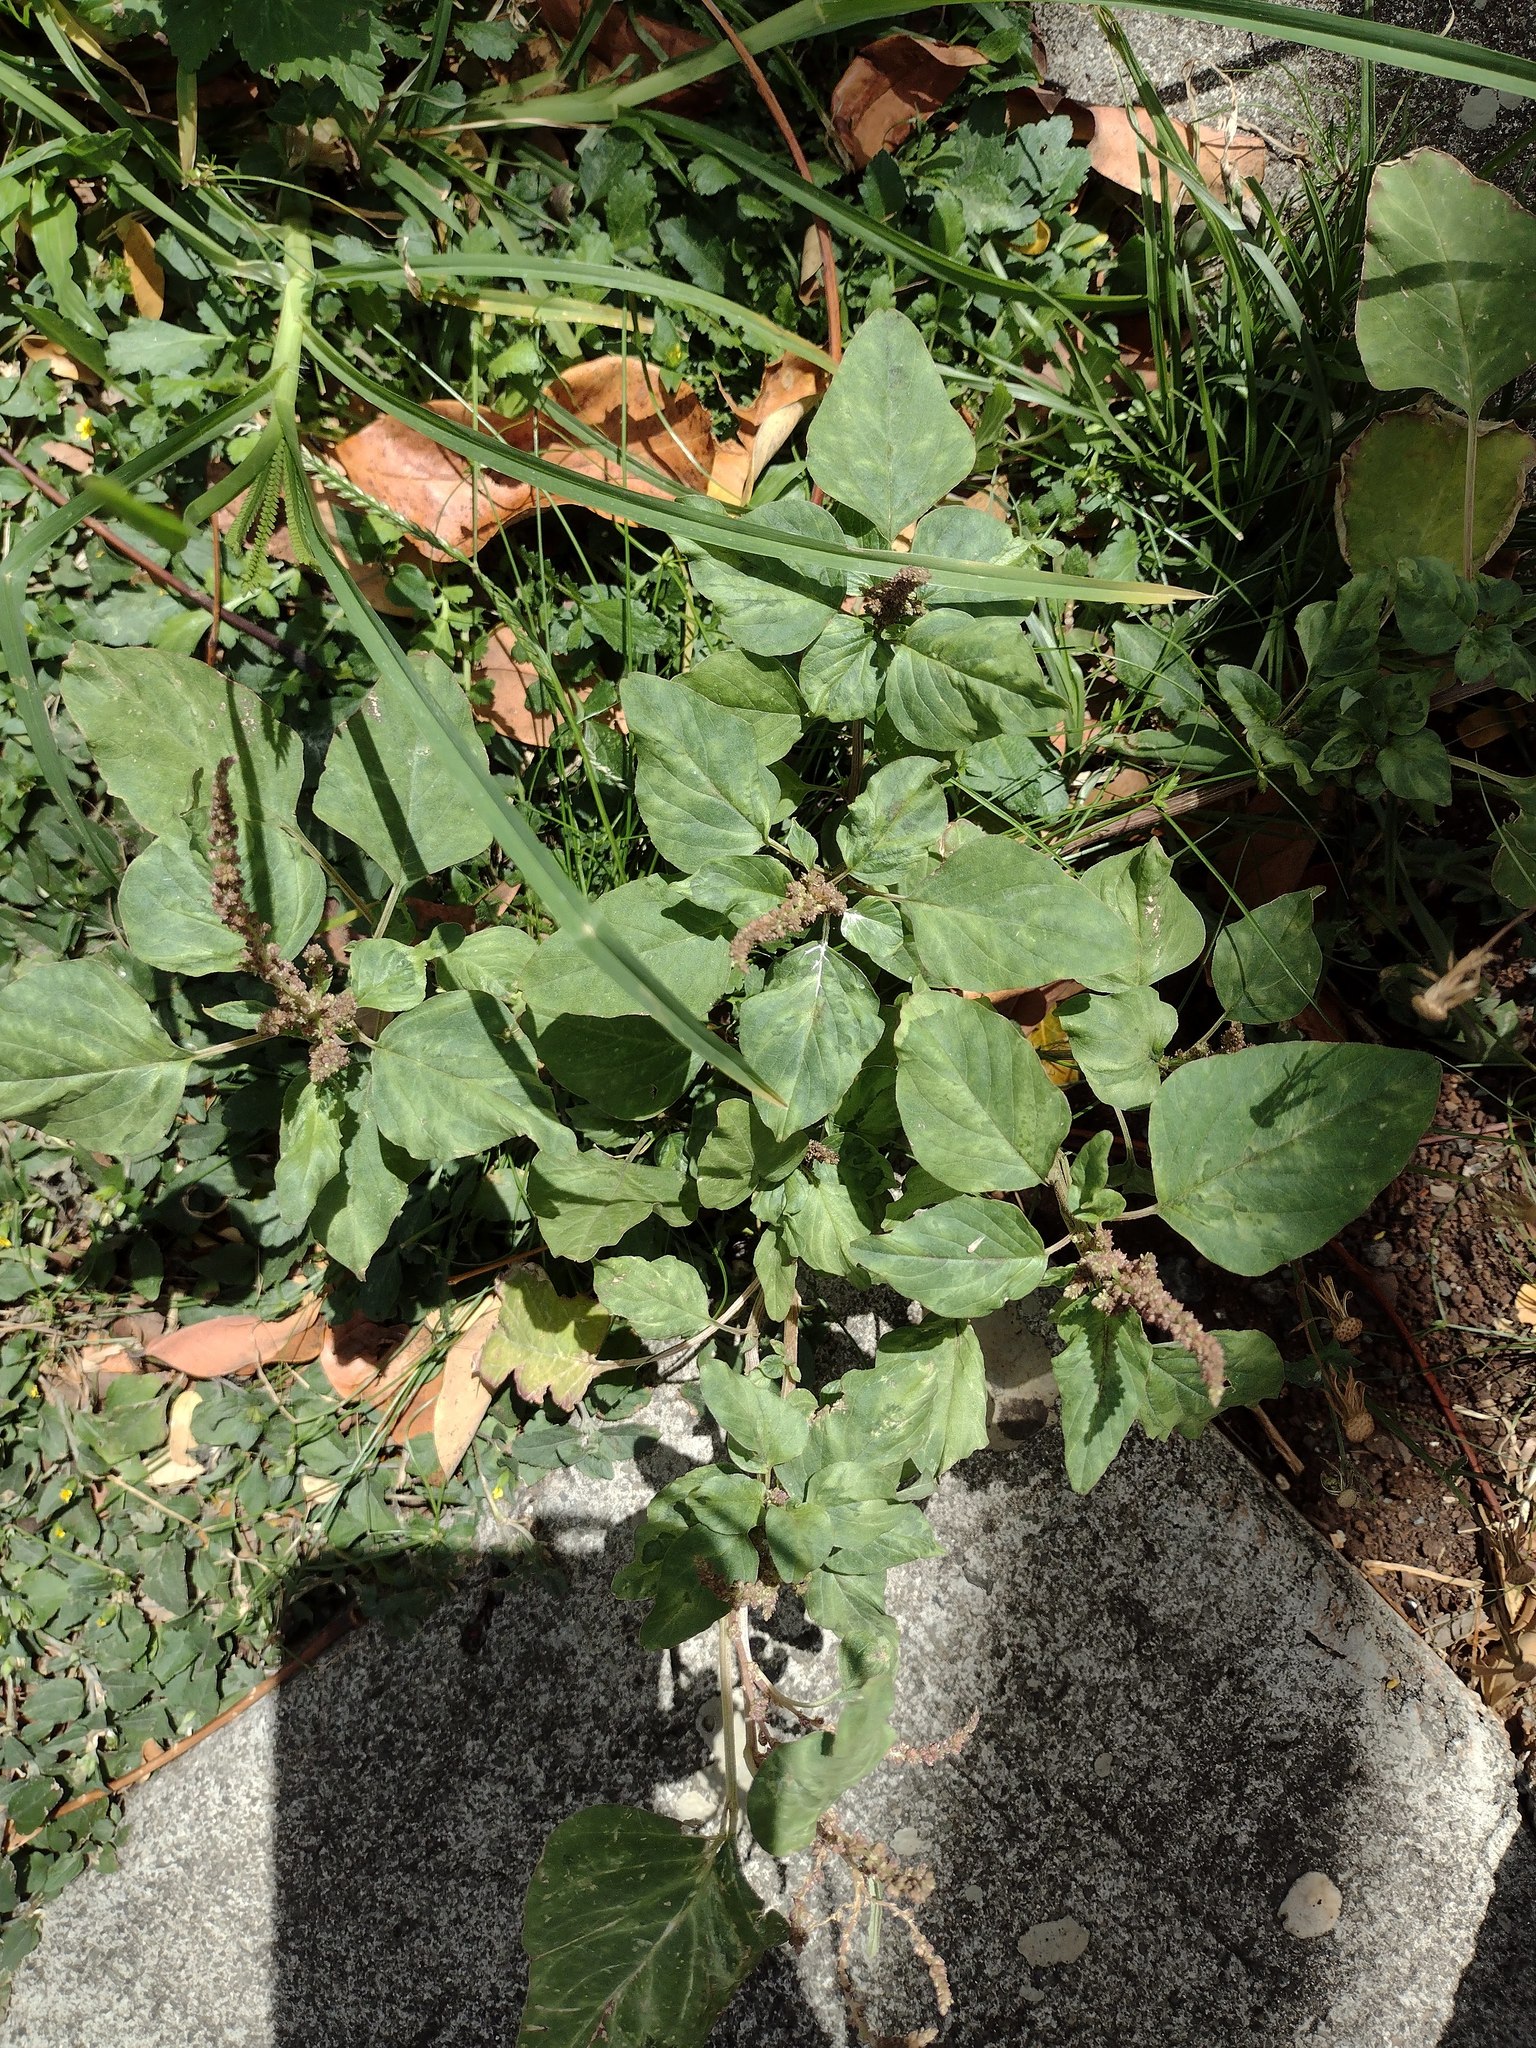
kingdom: Plantae
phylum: Tracheophyta
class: Magnoliopsida
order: Caryophyllales
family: Amaranthaceae
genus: Amaranthus
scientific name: Amaranthus viridis
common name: Slender amaranth
